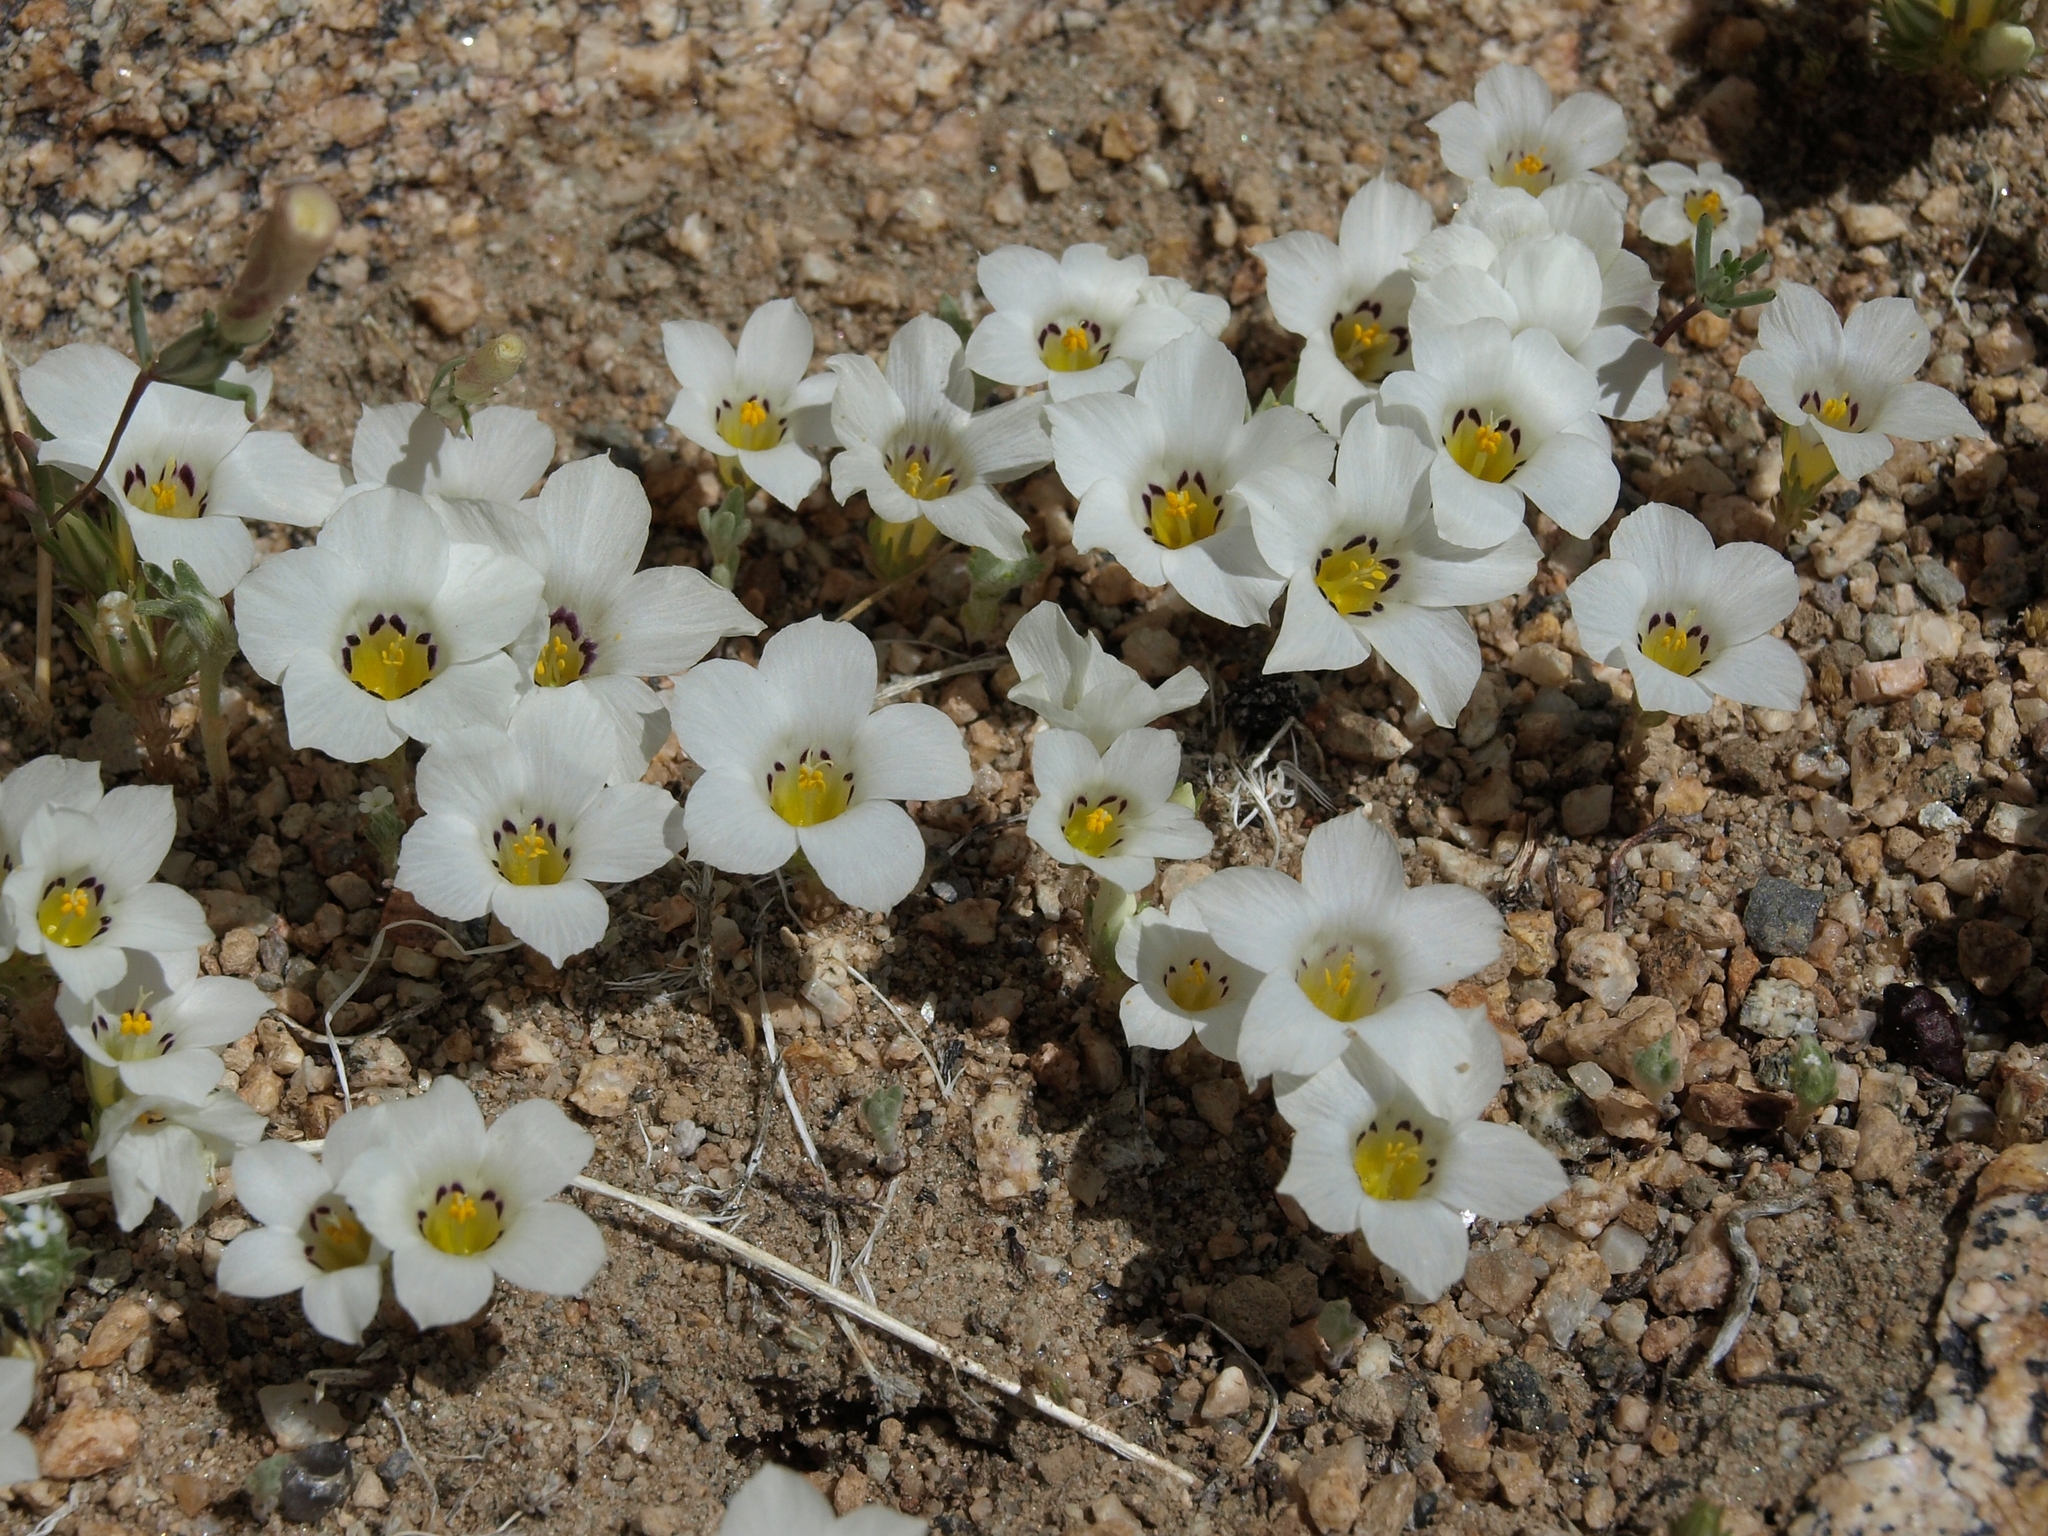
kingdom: Plantae
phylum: Tracheophyta
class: Magnoliopsida
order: Ericales
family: Polemoniaceae
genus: Linanthus
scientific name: Linanthus parryae
